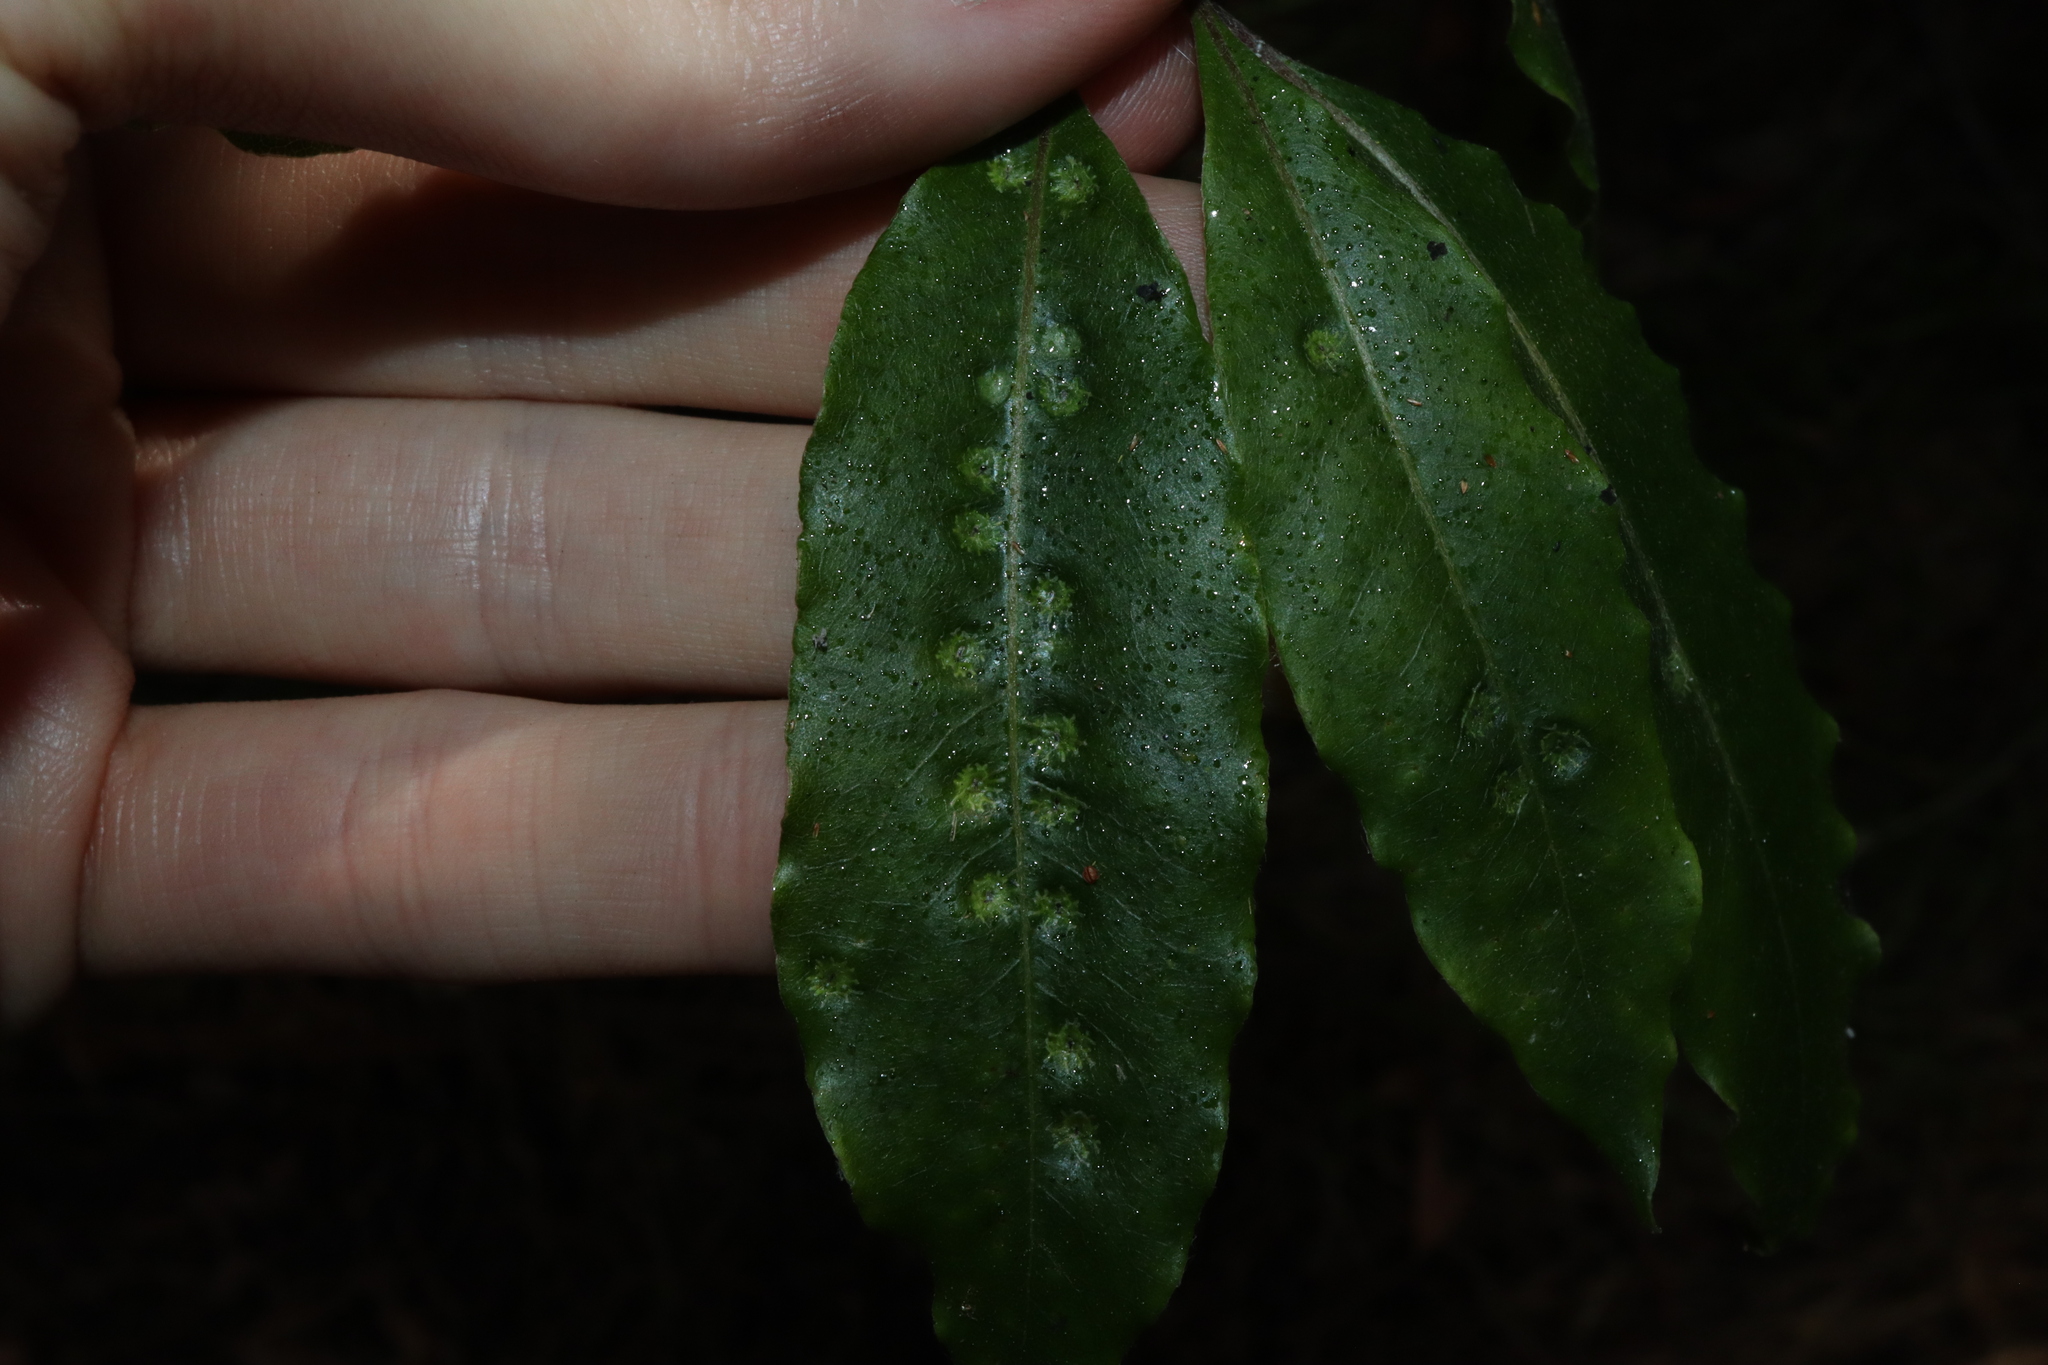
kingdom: Animalia
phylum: Arthropoda
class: Insecta
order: Diptera
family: Agromyzidae
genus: Phytoliriomyza
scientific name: Phytoliriomyza pittosporophylli
